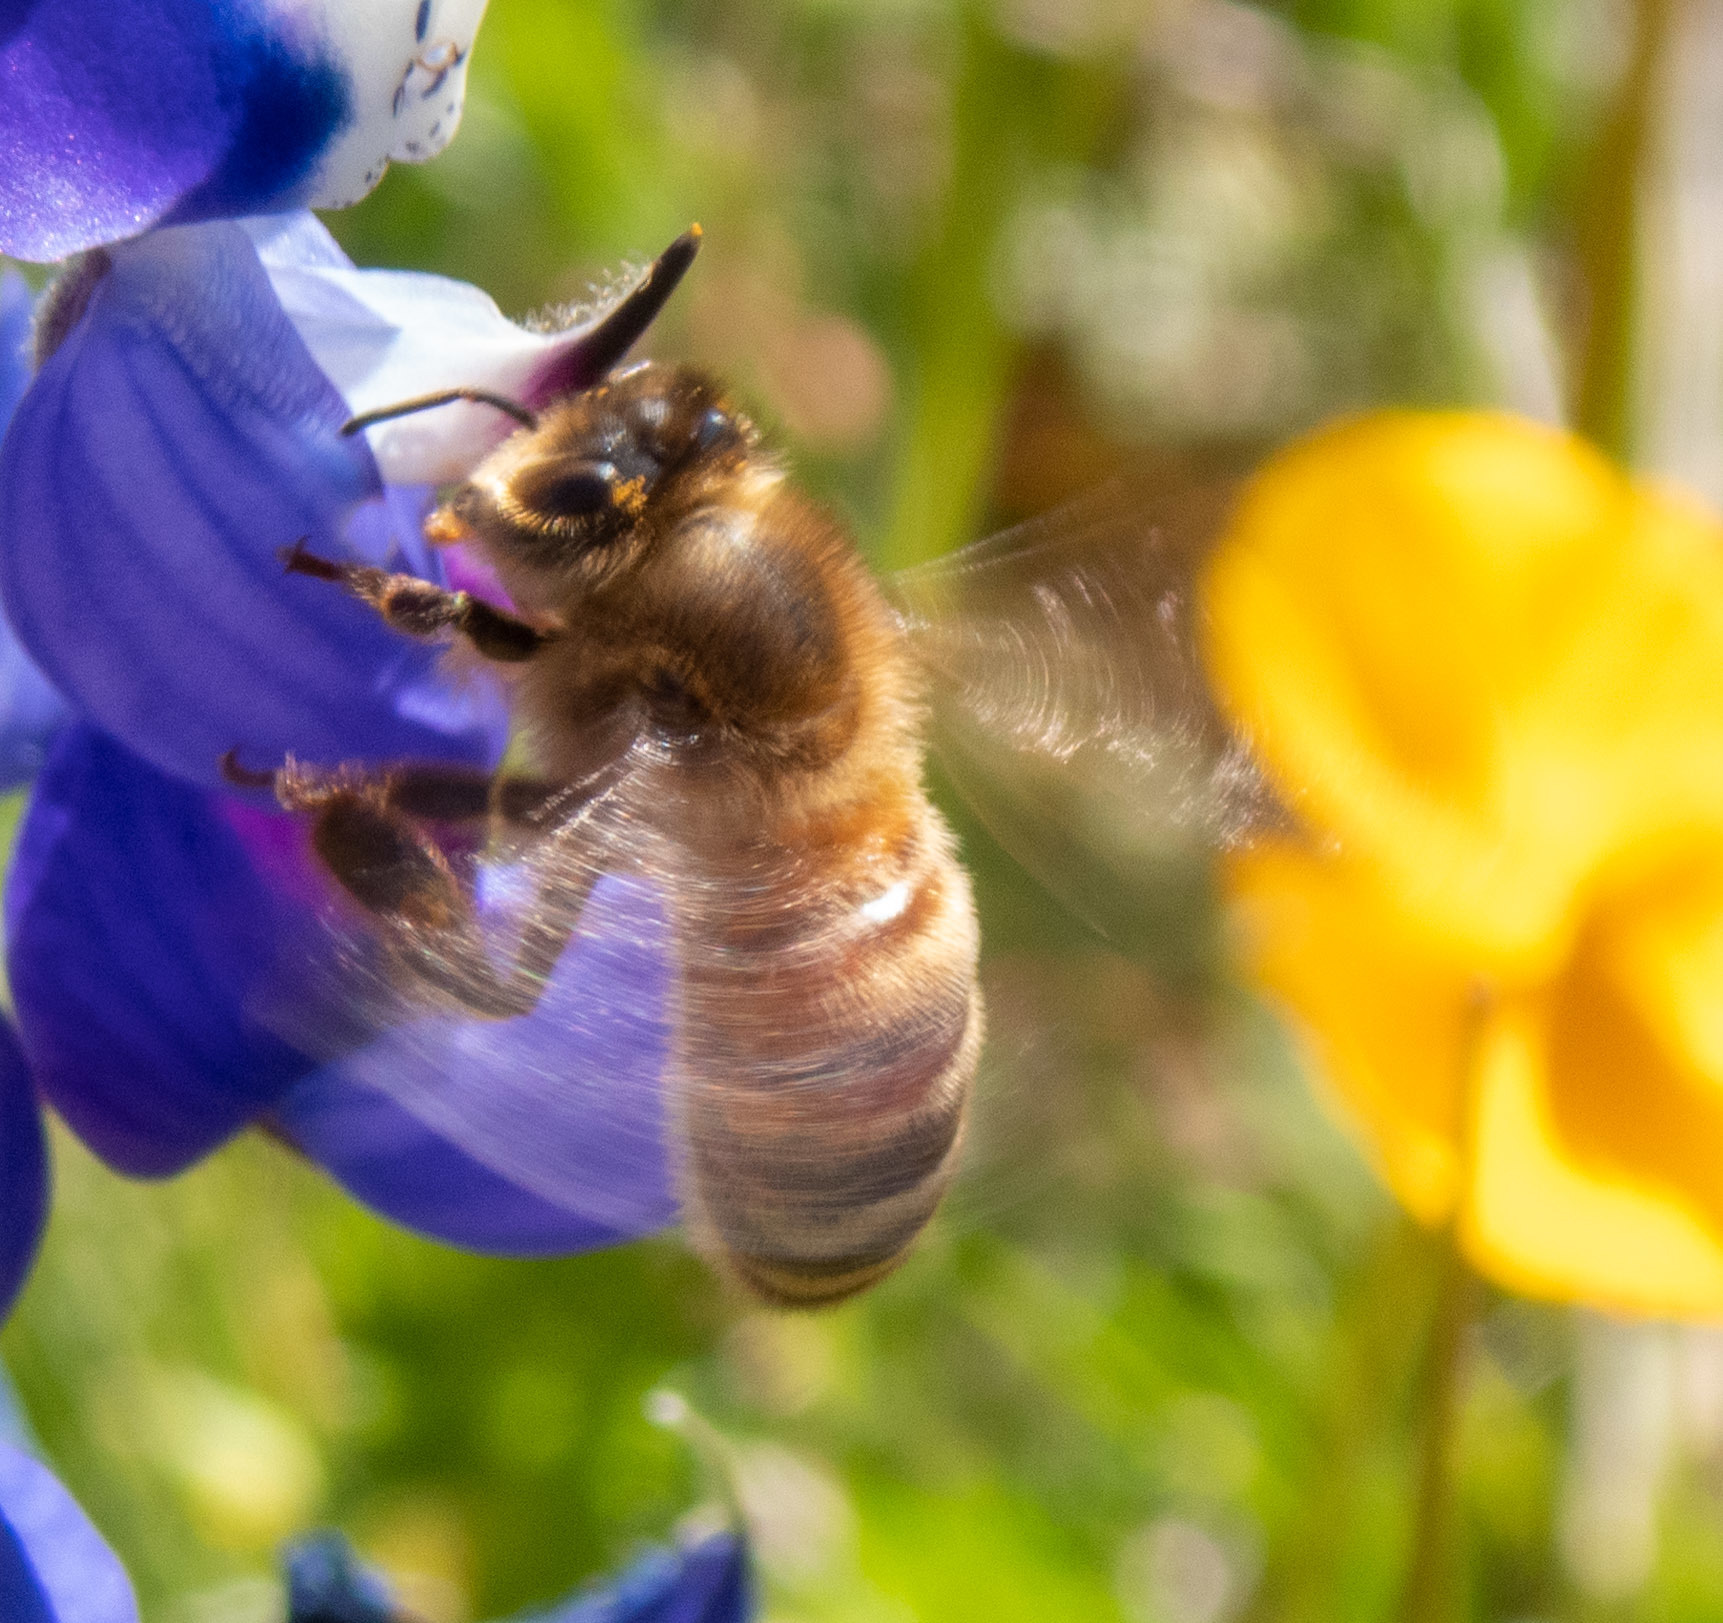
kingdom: Animalia
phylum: Arthropoda
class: Insecta
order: Hymenoptera
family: Apidae
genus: Apis
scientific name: Apis mellifera
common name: Honey bee
